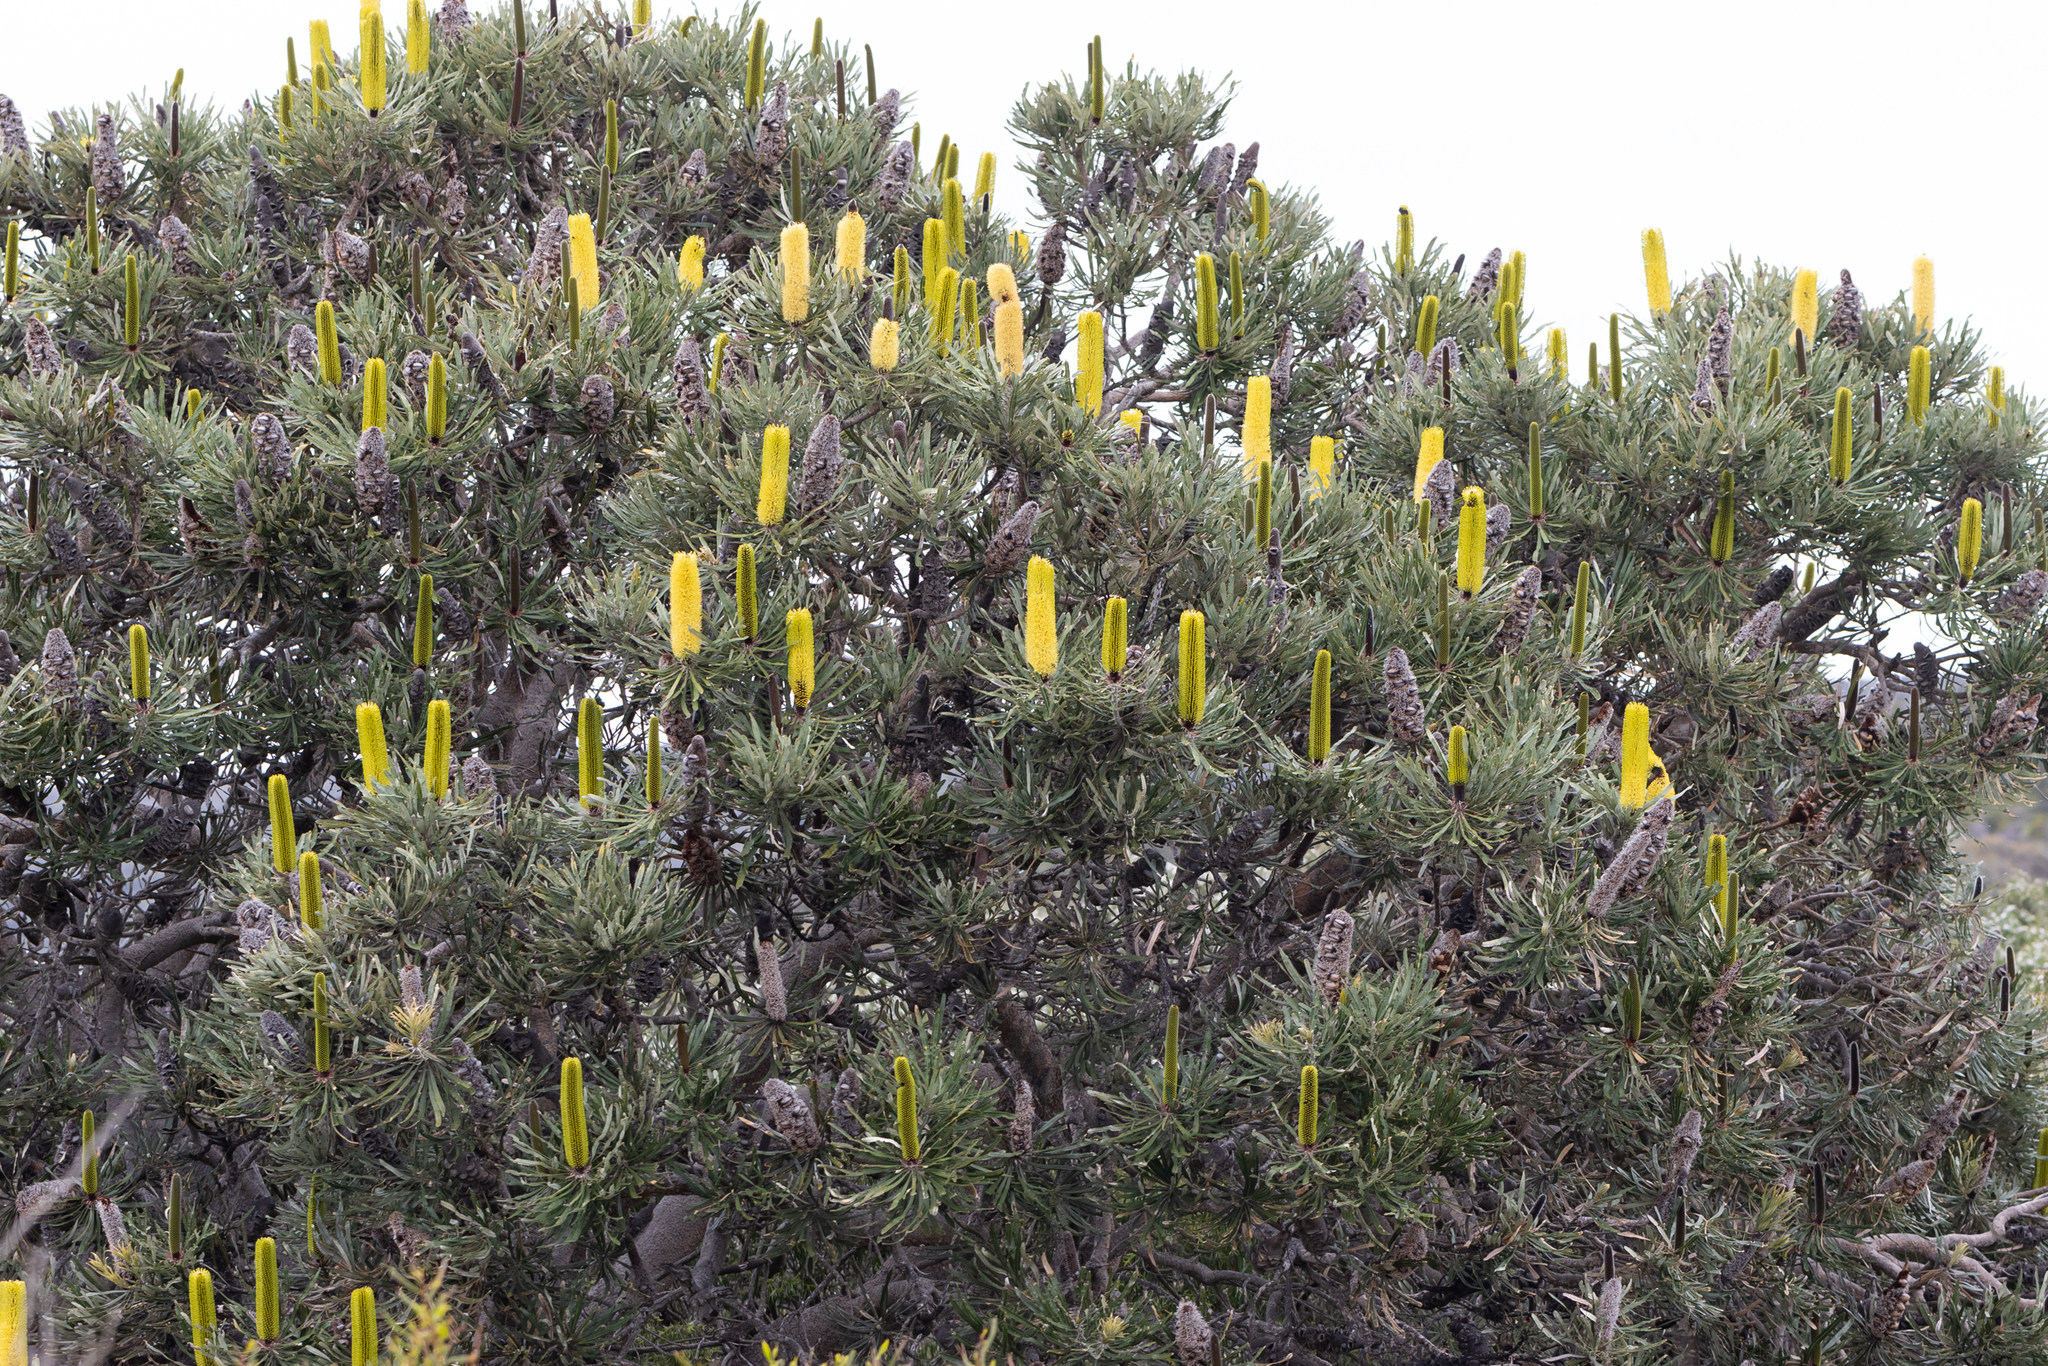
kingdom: Plantae
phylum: Tracheophyta
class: Magnoliopsida
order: Proteales
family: Proteaceae
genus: Banksia
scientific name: Banksia attenuata
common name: Coast banksia
